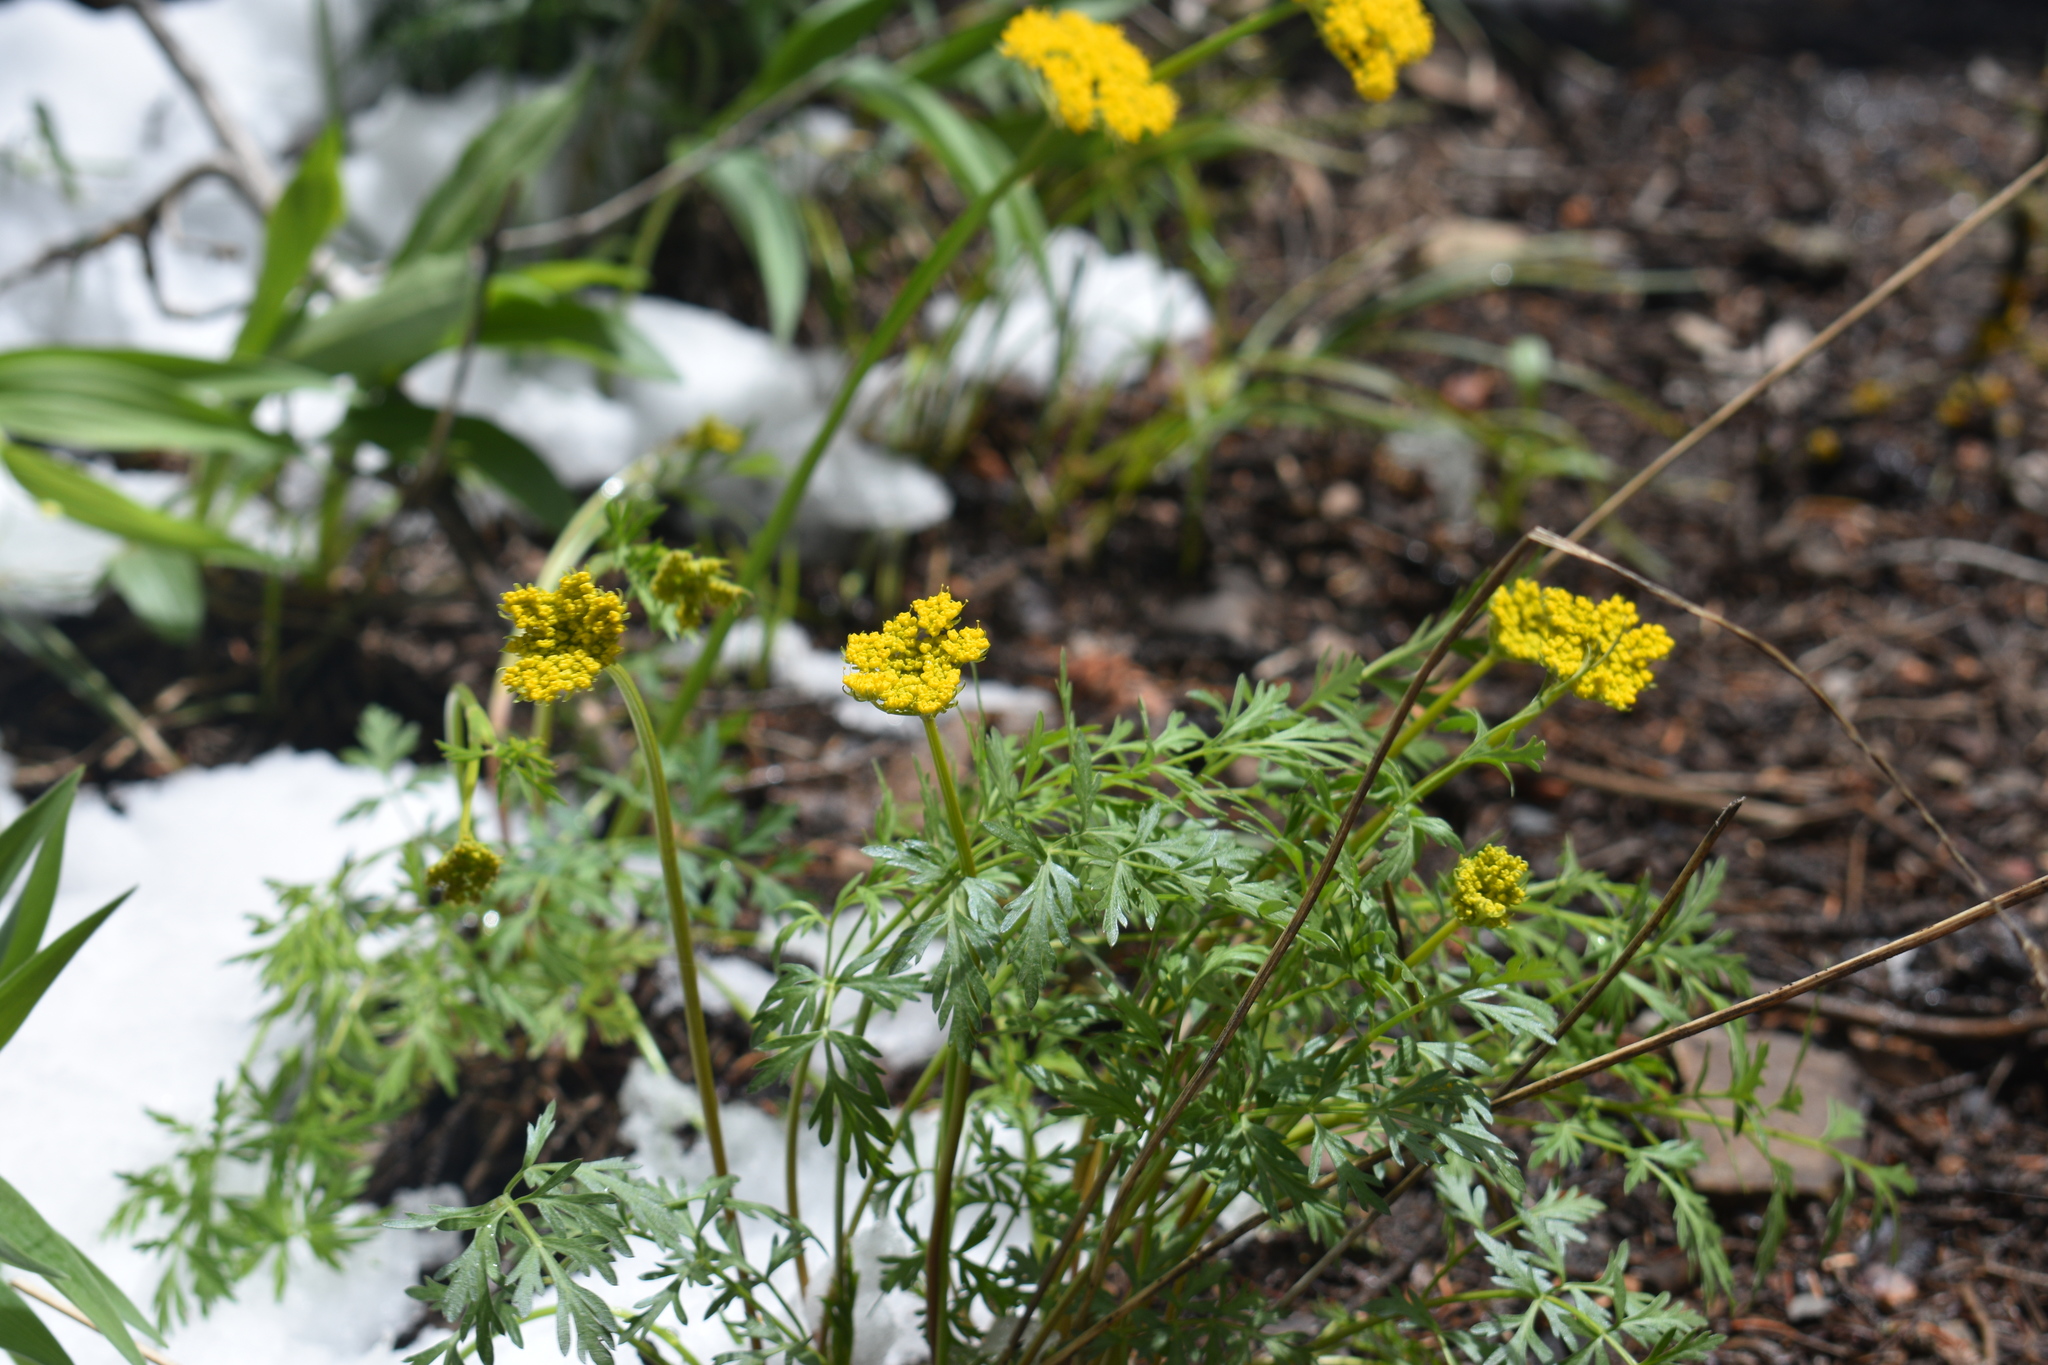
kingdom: Plantae
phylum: Tracheophyta
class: Magnoliopsida
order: Apiales
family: Apiaceae
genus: Cymopterus
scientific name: Cymopterus lemmonii
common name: Lemmon's spring-parsley
